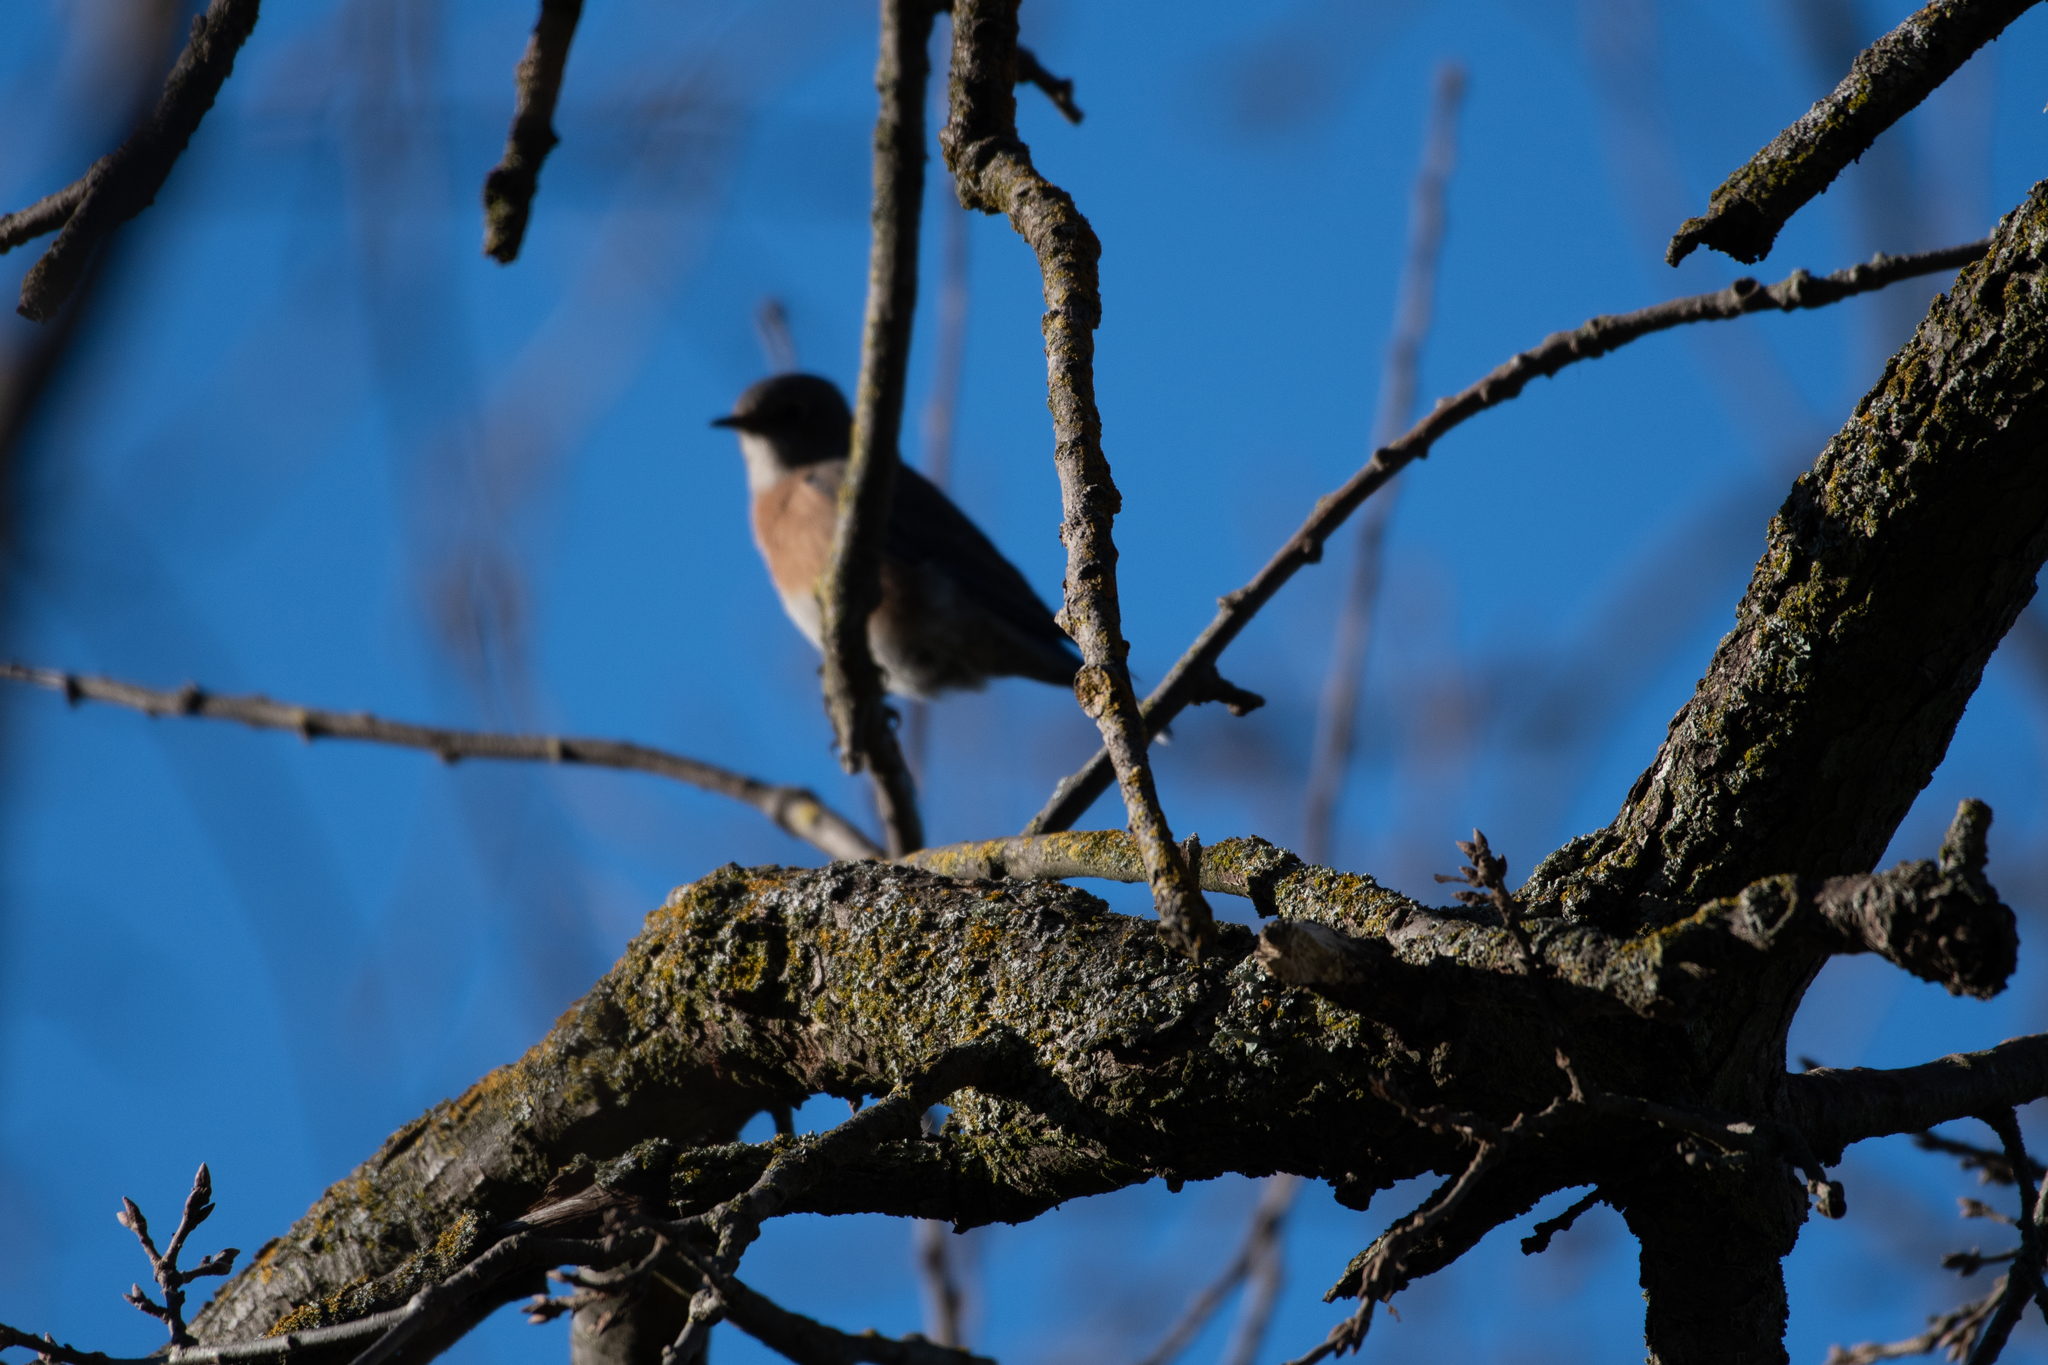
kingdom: Animalia
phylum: Chordata
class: Aves
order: Passeriformes
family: Turdidae
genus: Sialia
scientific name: Sialia mexicana
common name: Western bluebird
